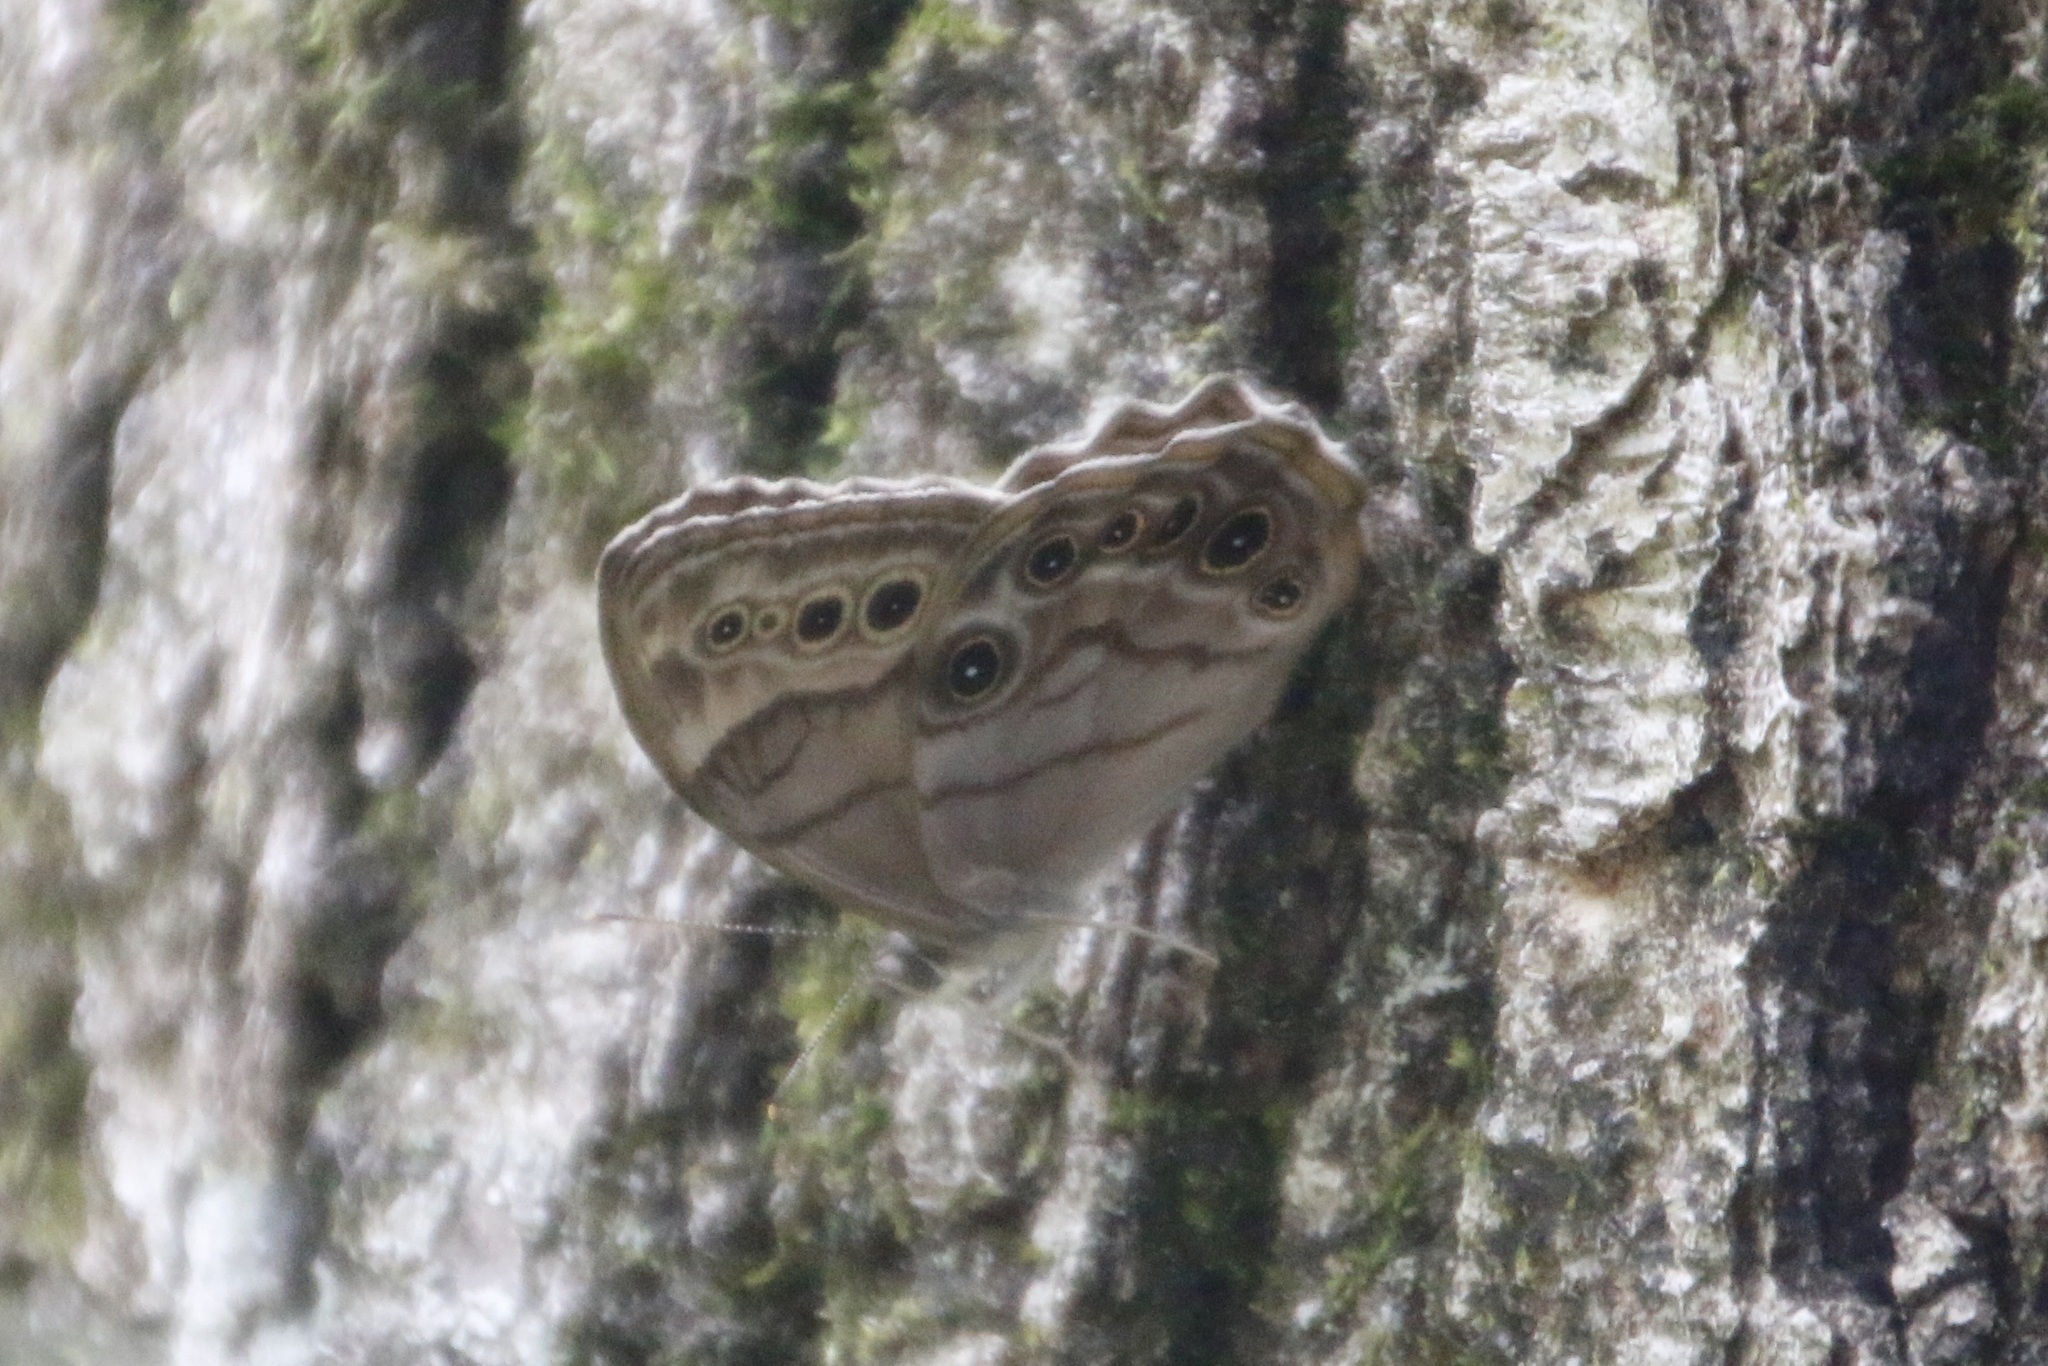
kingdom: Animalia
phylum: Arthropoda
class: Insecta
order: Lepidoptera
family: Nymphalidae
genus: Lethe
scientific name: Lethe anthedon
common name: Northern pearly-eye
